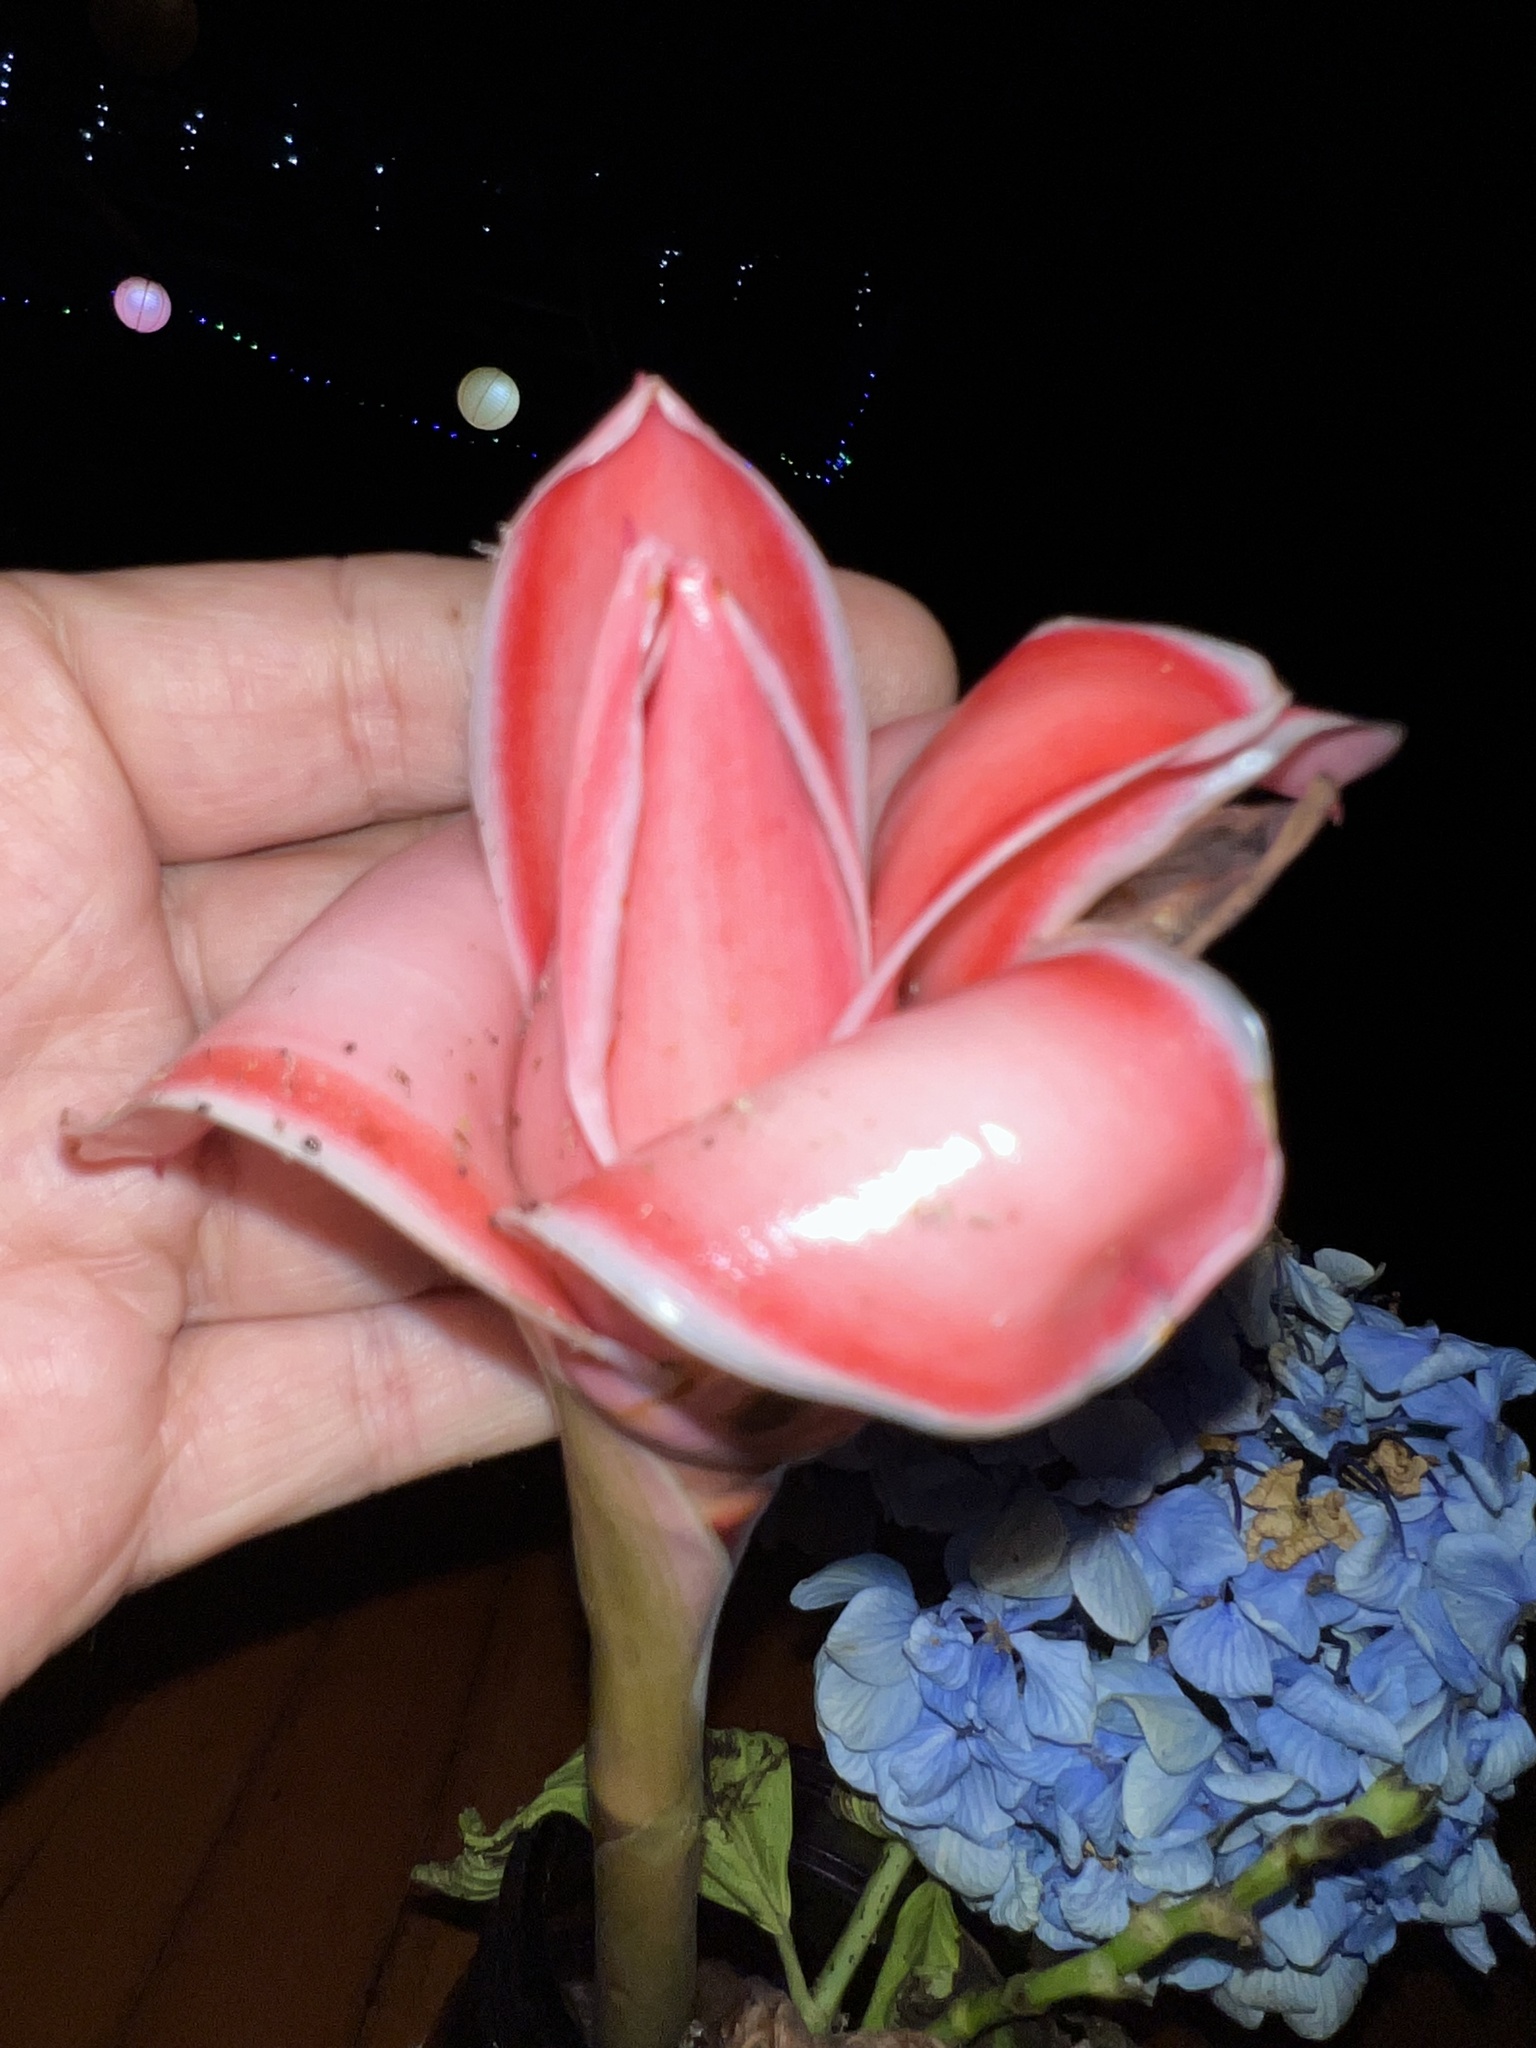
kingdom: Plantae
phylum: Tracheophyta
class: Liliopsida
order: Zingiberales
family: Zingiberaceae
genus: Etlingera
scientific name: Etlingera elatior
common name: Philippine waxflower
